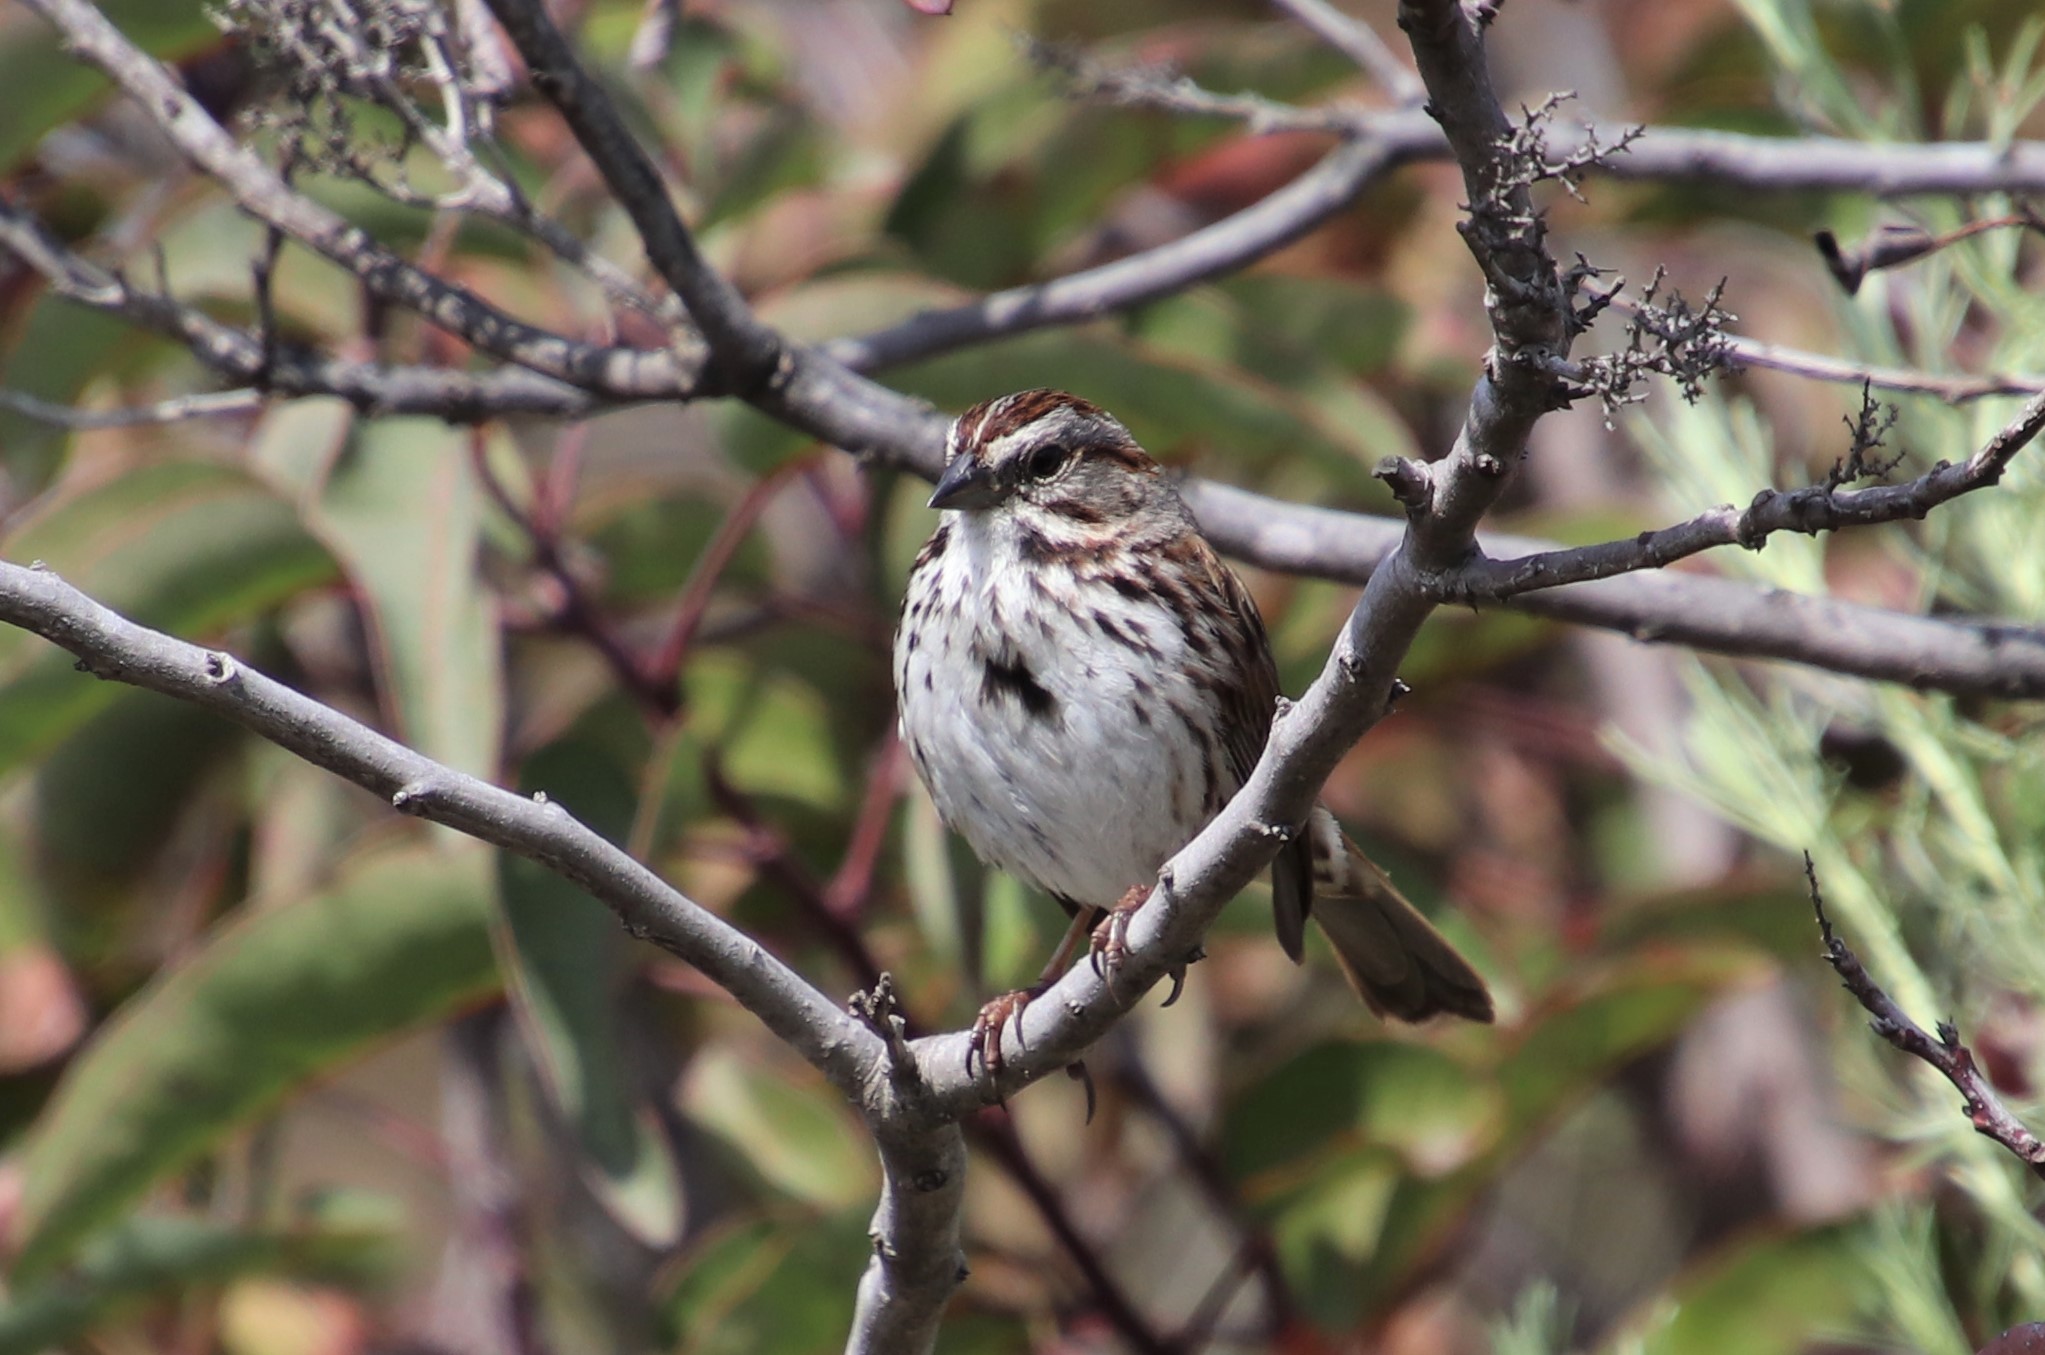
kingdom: Animalia
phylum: Chordata
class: Aves
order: Passeriformes
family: Passerellidae
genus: Melospiza
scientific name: Melospiza melodia
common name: Song sparrow
